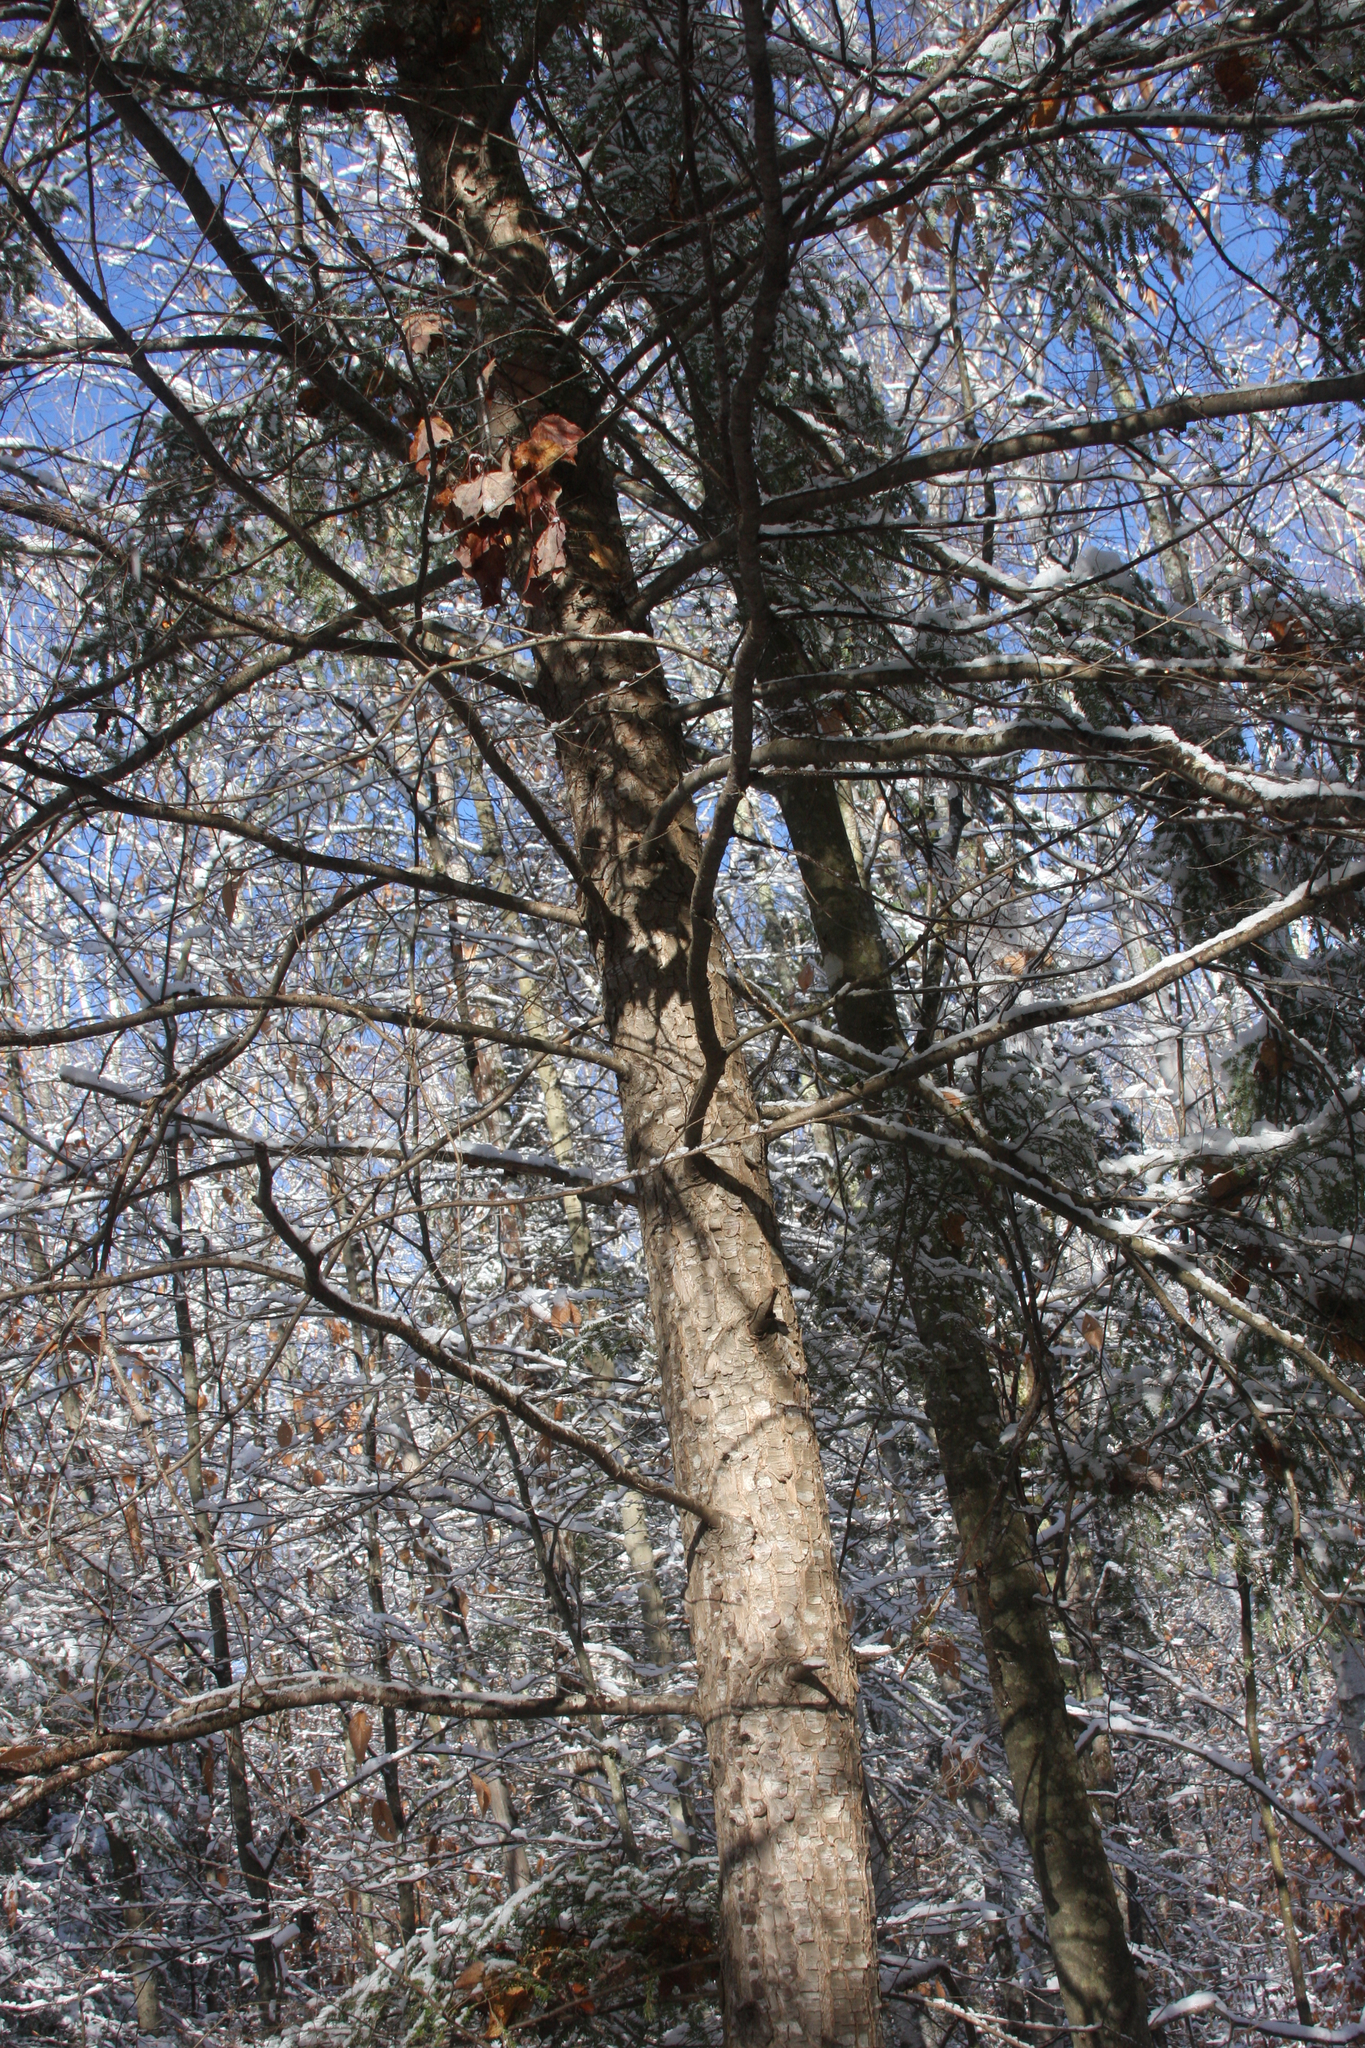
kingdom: Plantae
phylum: Tracheophyta
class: Pinopsida
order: Pinales
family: Pinaceae
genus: Tsuga
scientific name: Tsuga canadensis
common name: Eastern hemlock
